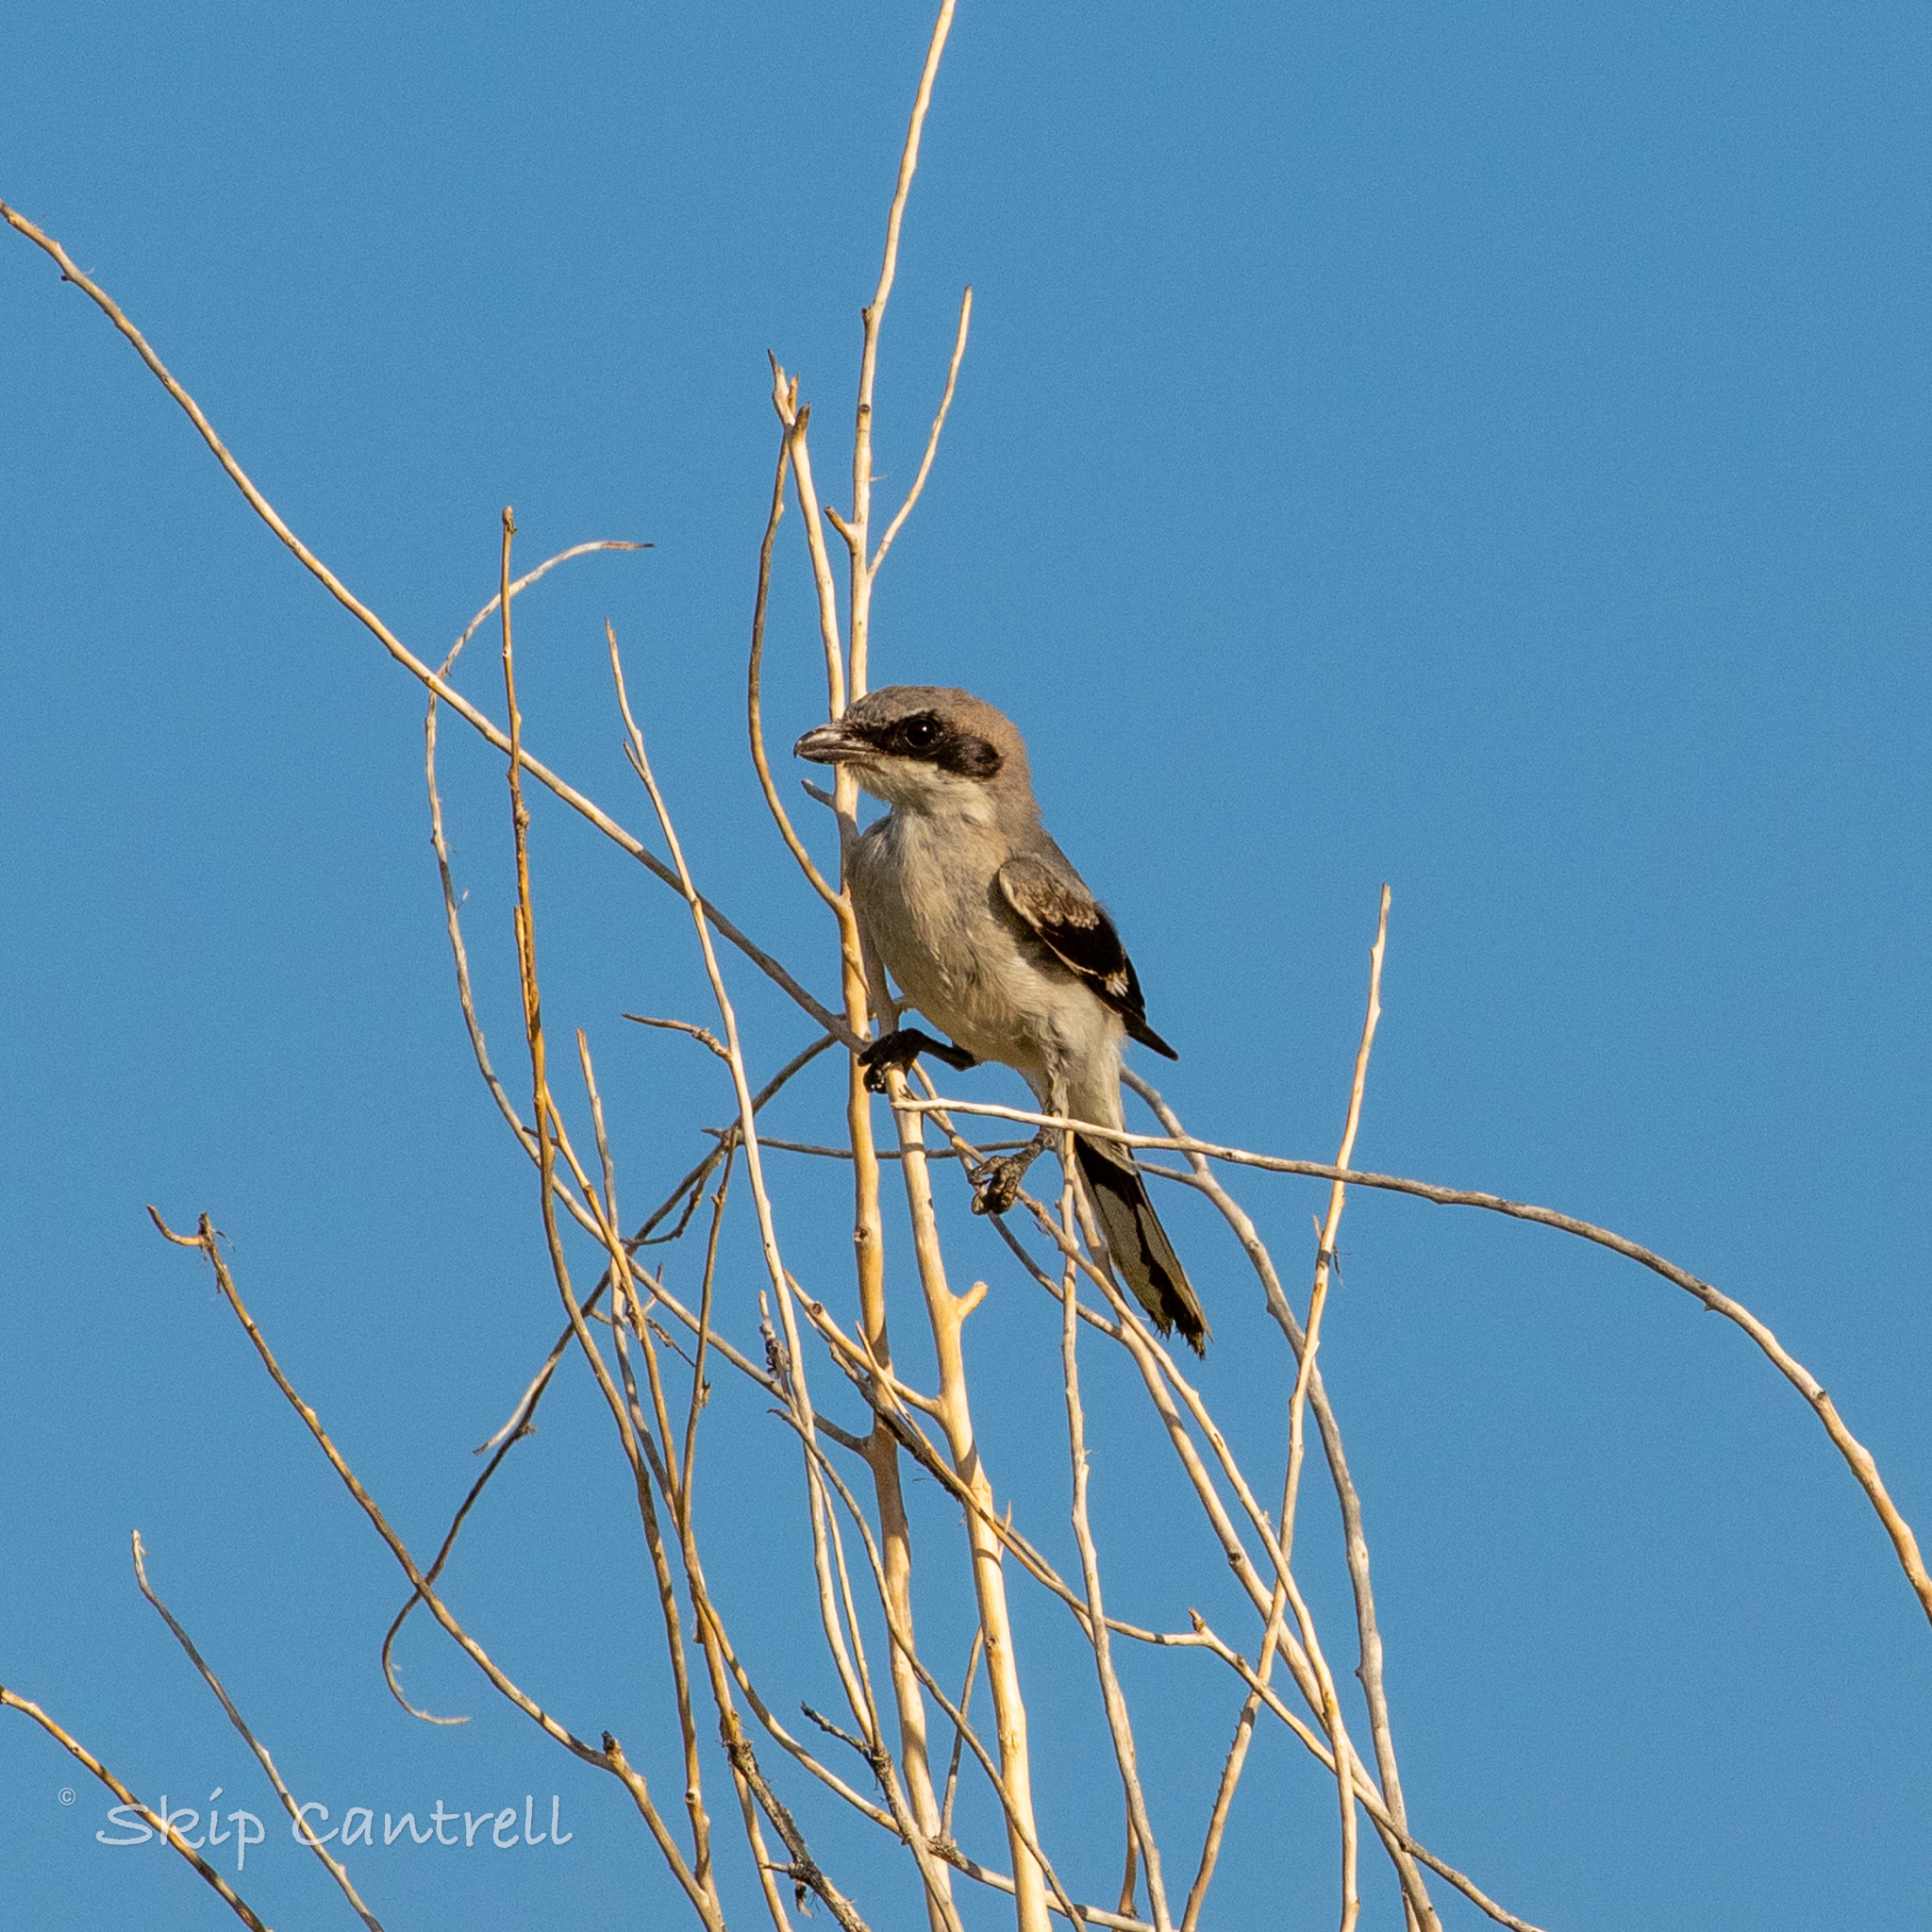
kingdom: Animalia
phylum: Chordata
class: Aves
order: Passeriformes
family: Laniidae
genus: Lanius
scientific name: Lanius ludovicianus
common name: Loggerhead shrike
